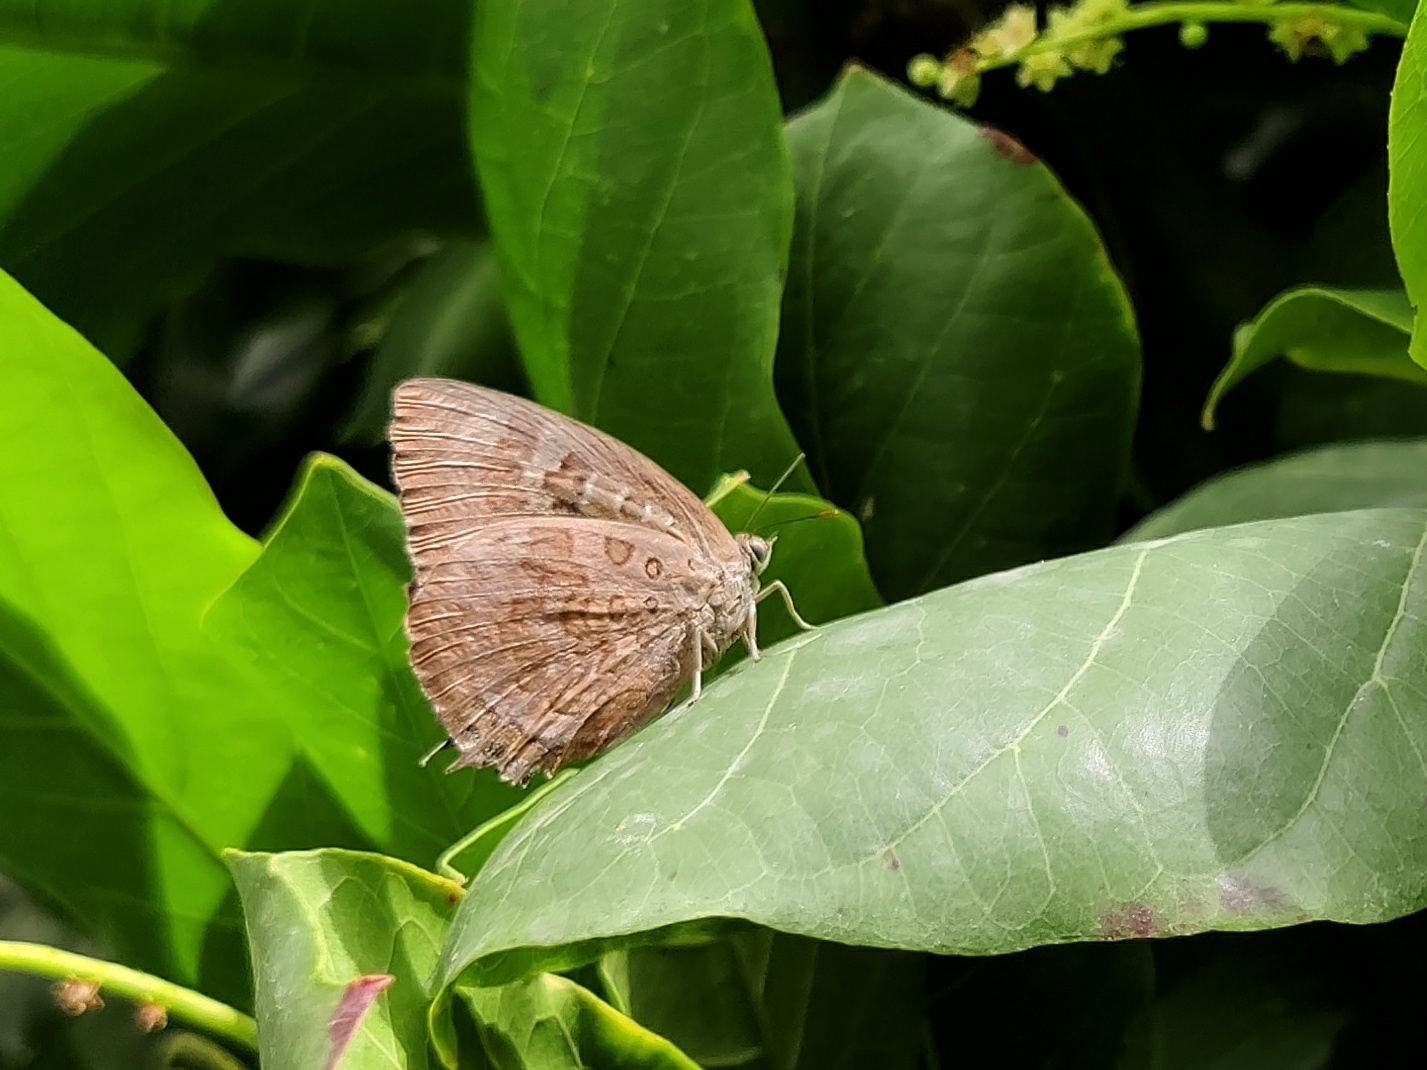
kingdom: Animalia
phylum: Arthropoda
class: Insecta
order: Lepidoptera
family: Lycaenidae
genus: Arhopala
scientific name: Arhopala amantes
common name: Large oakblue
